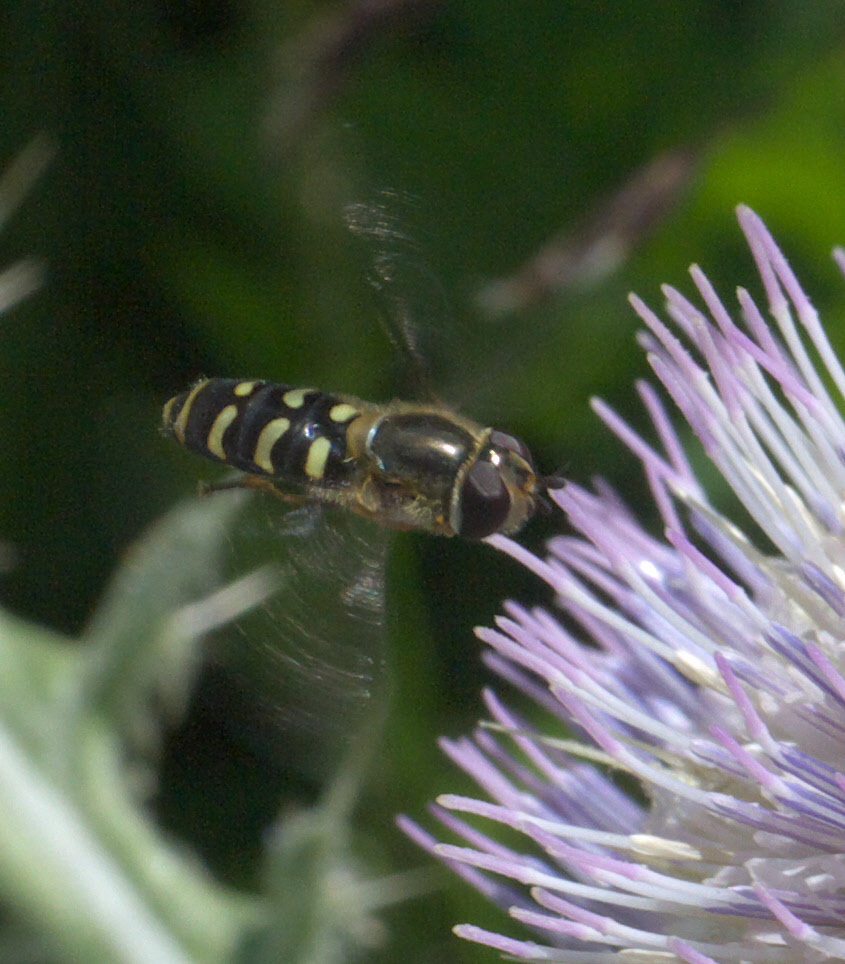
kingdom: Animalia
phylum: Arthropoda
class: Insecta
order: Diptera
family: Syrphidae
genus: Lapposyrphus
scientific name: Lapposyrphus lapponicus
